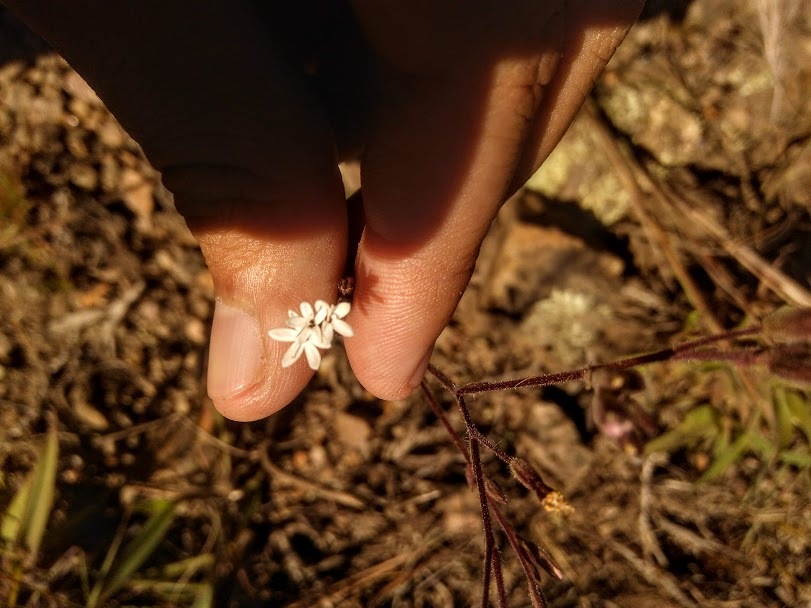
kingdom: Plantae
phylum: Tracheophyta
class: Magnoliopsida
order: Asterales
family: Asteraceae
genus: Stevia
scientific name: Stevia elatior
